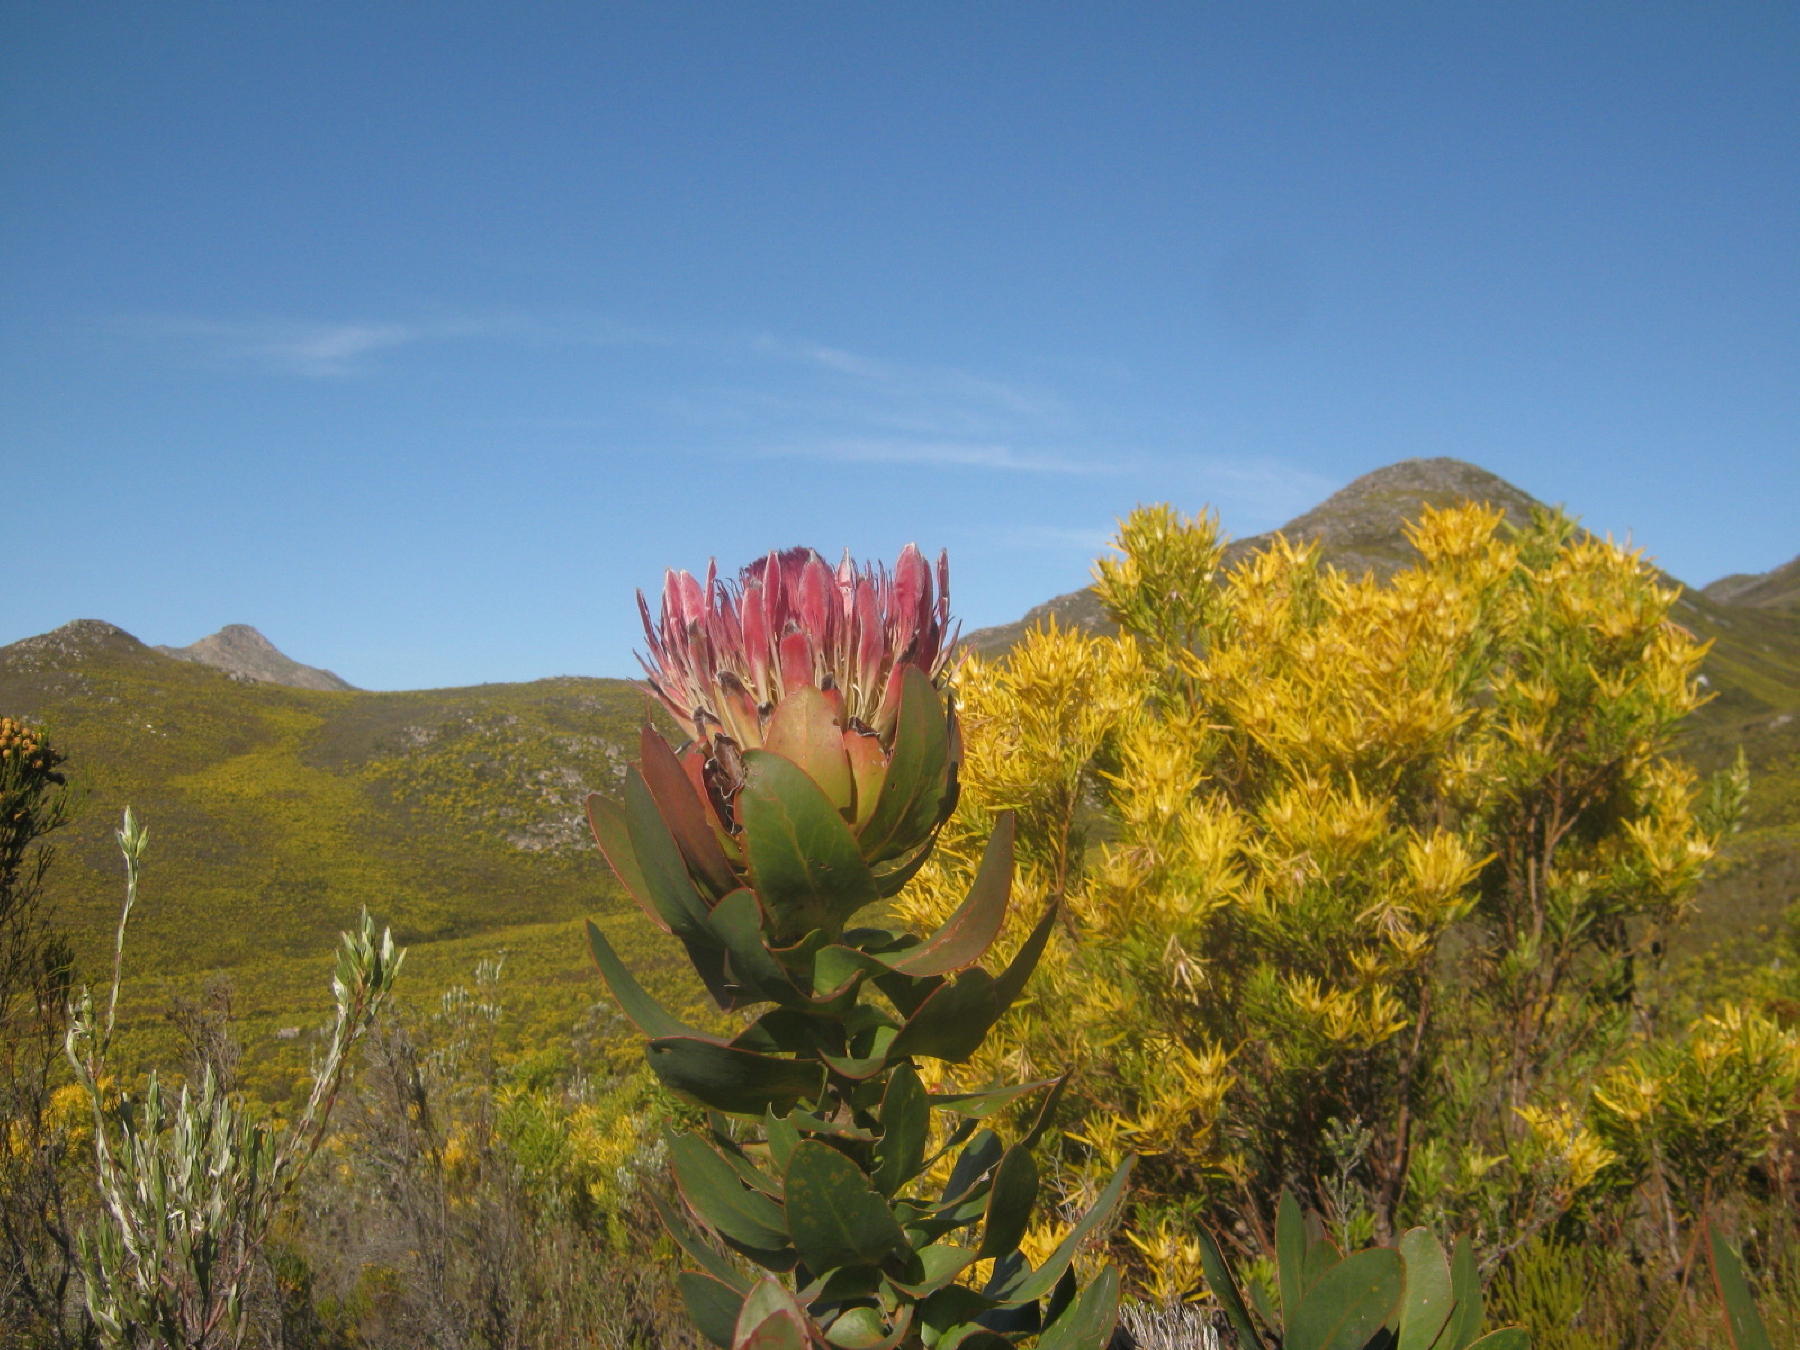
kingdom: Plantae
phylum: Tracheophyta
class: Magnoliopsida
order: Proteales
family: Proteaceae
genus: Protea
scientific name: Protea eximia
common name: Broad-leaved sugarbush
